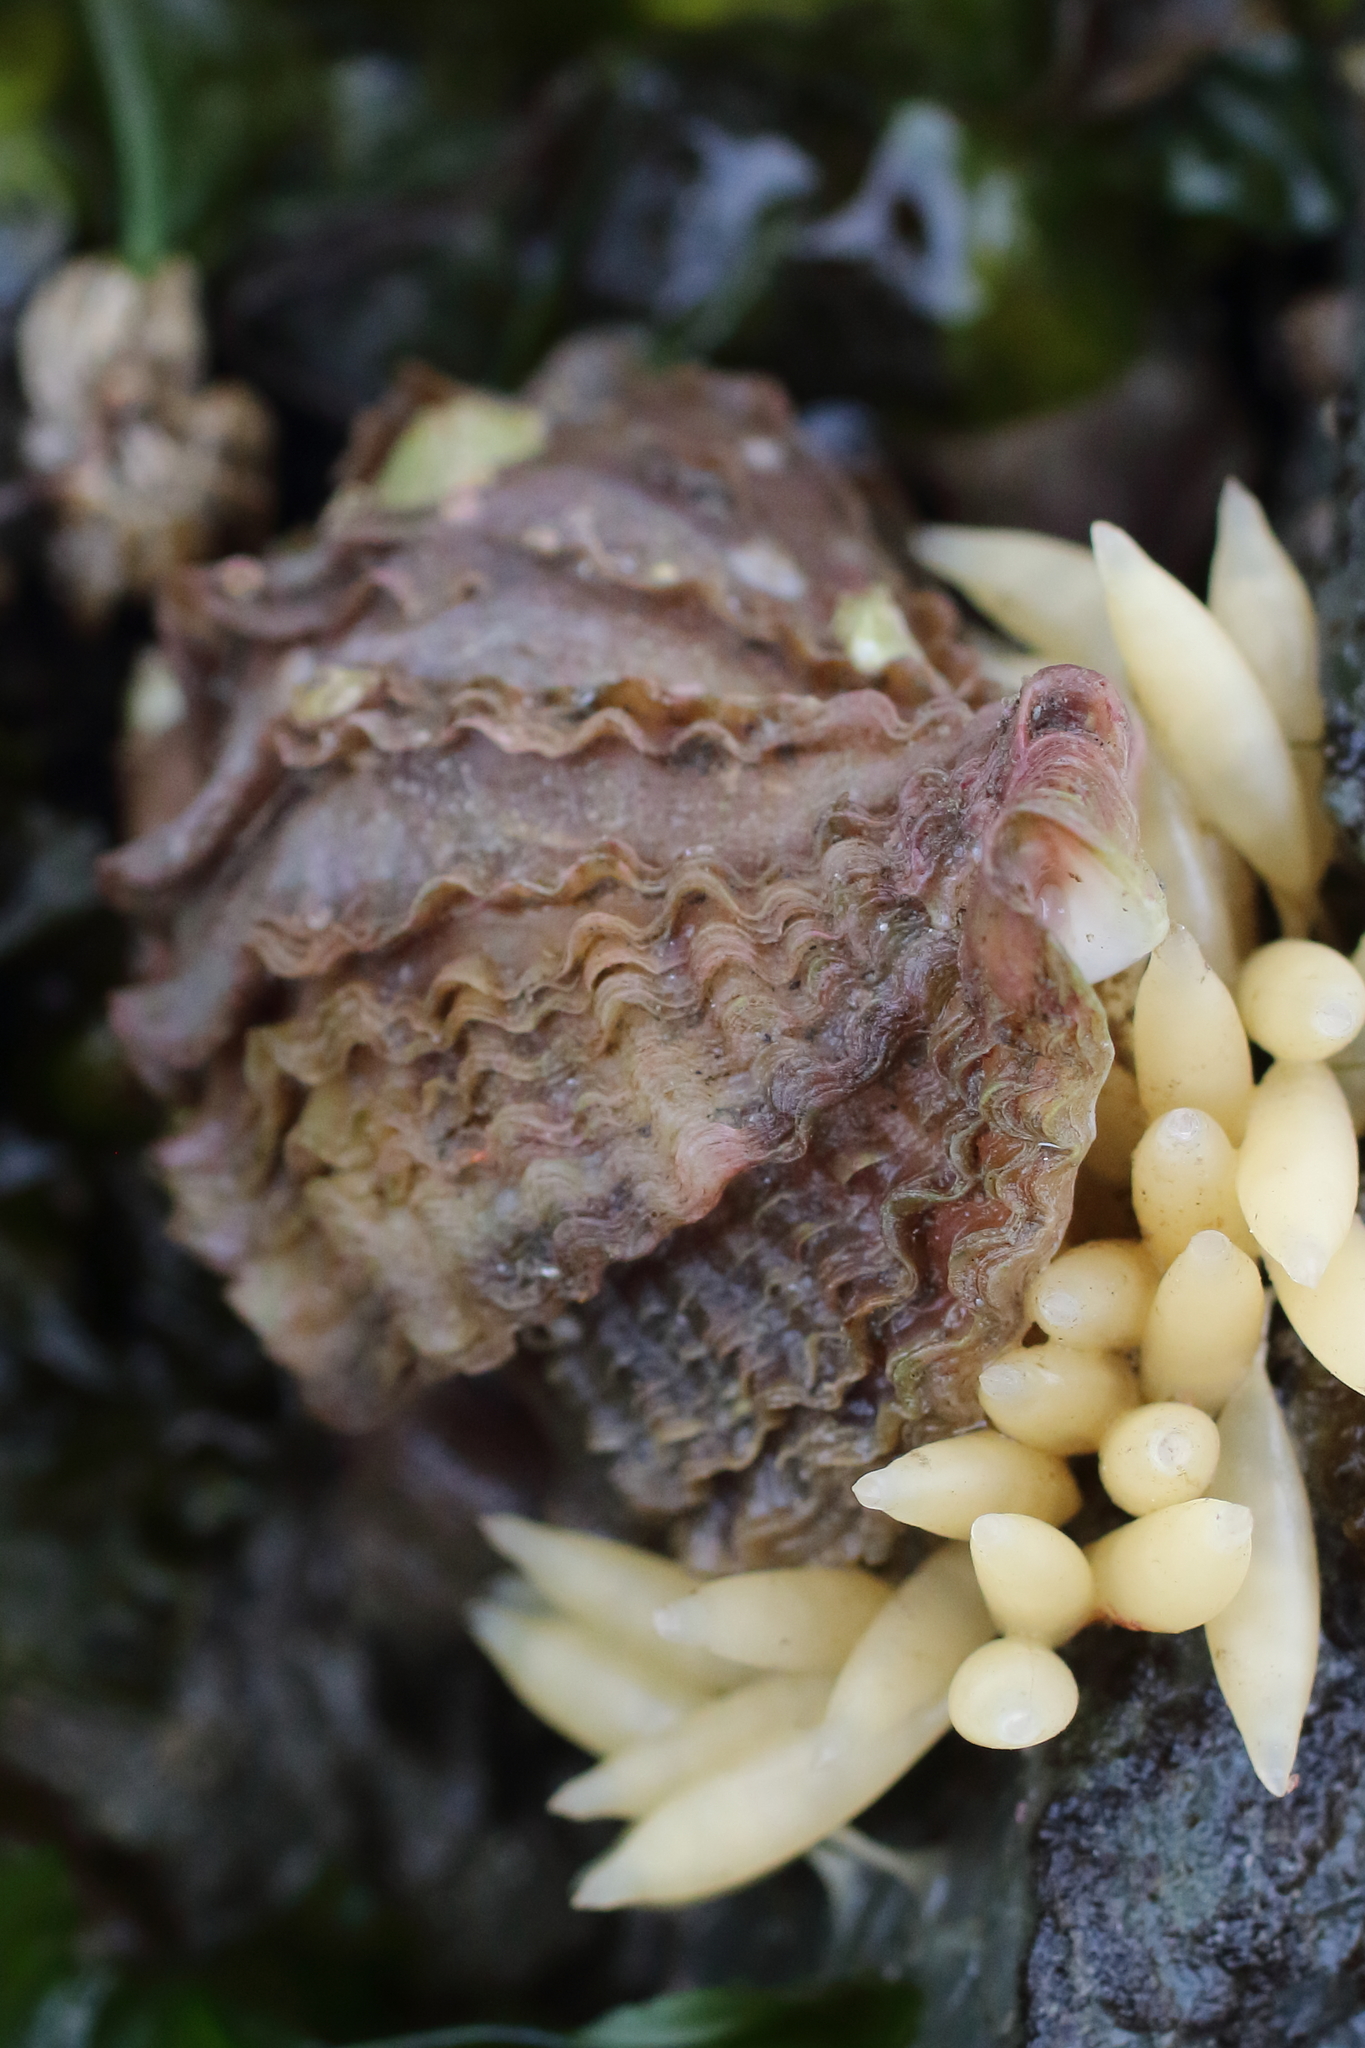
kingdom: Animalia
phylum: Mollusca
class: Gastropoda
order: Neogastropoda
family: Muricidae
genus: Nucella
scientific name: Nucella lamellosa
